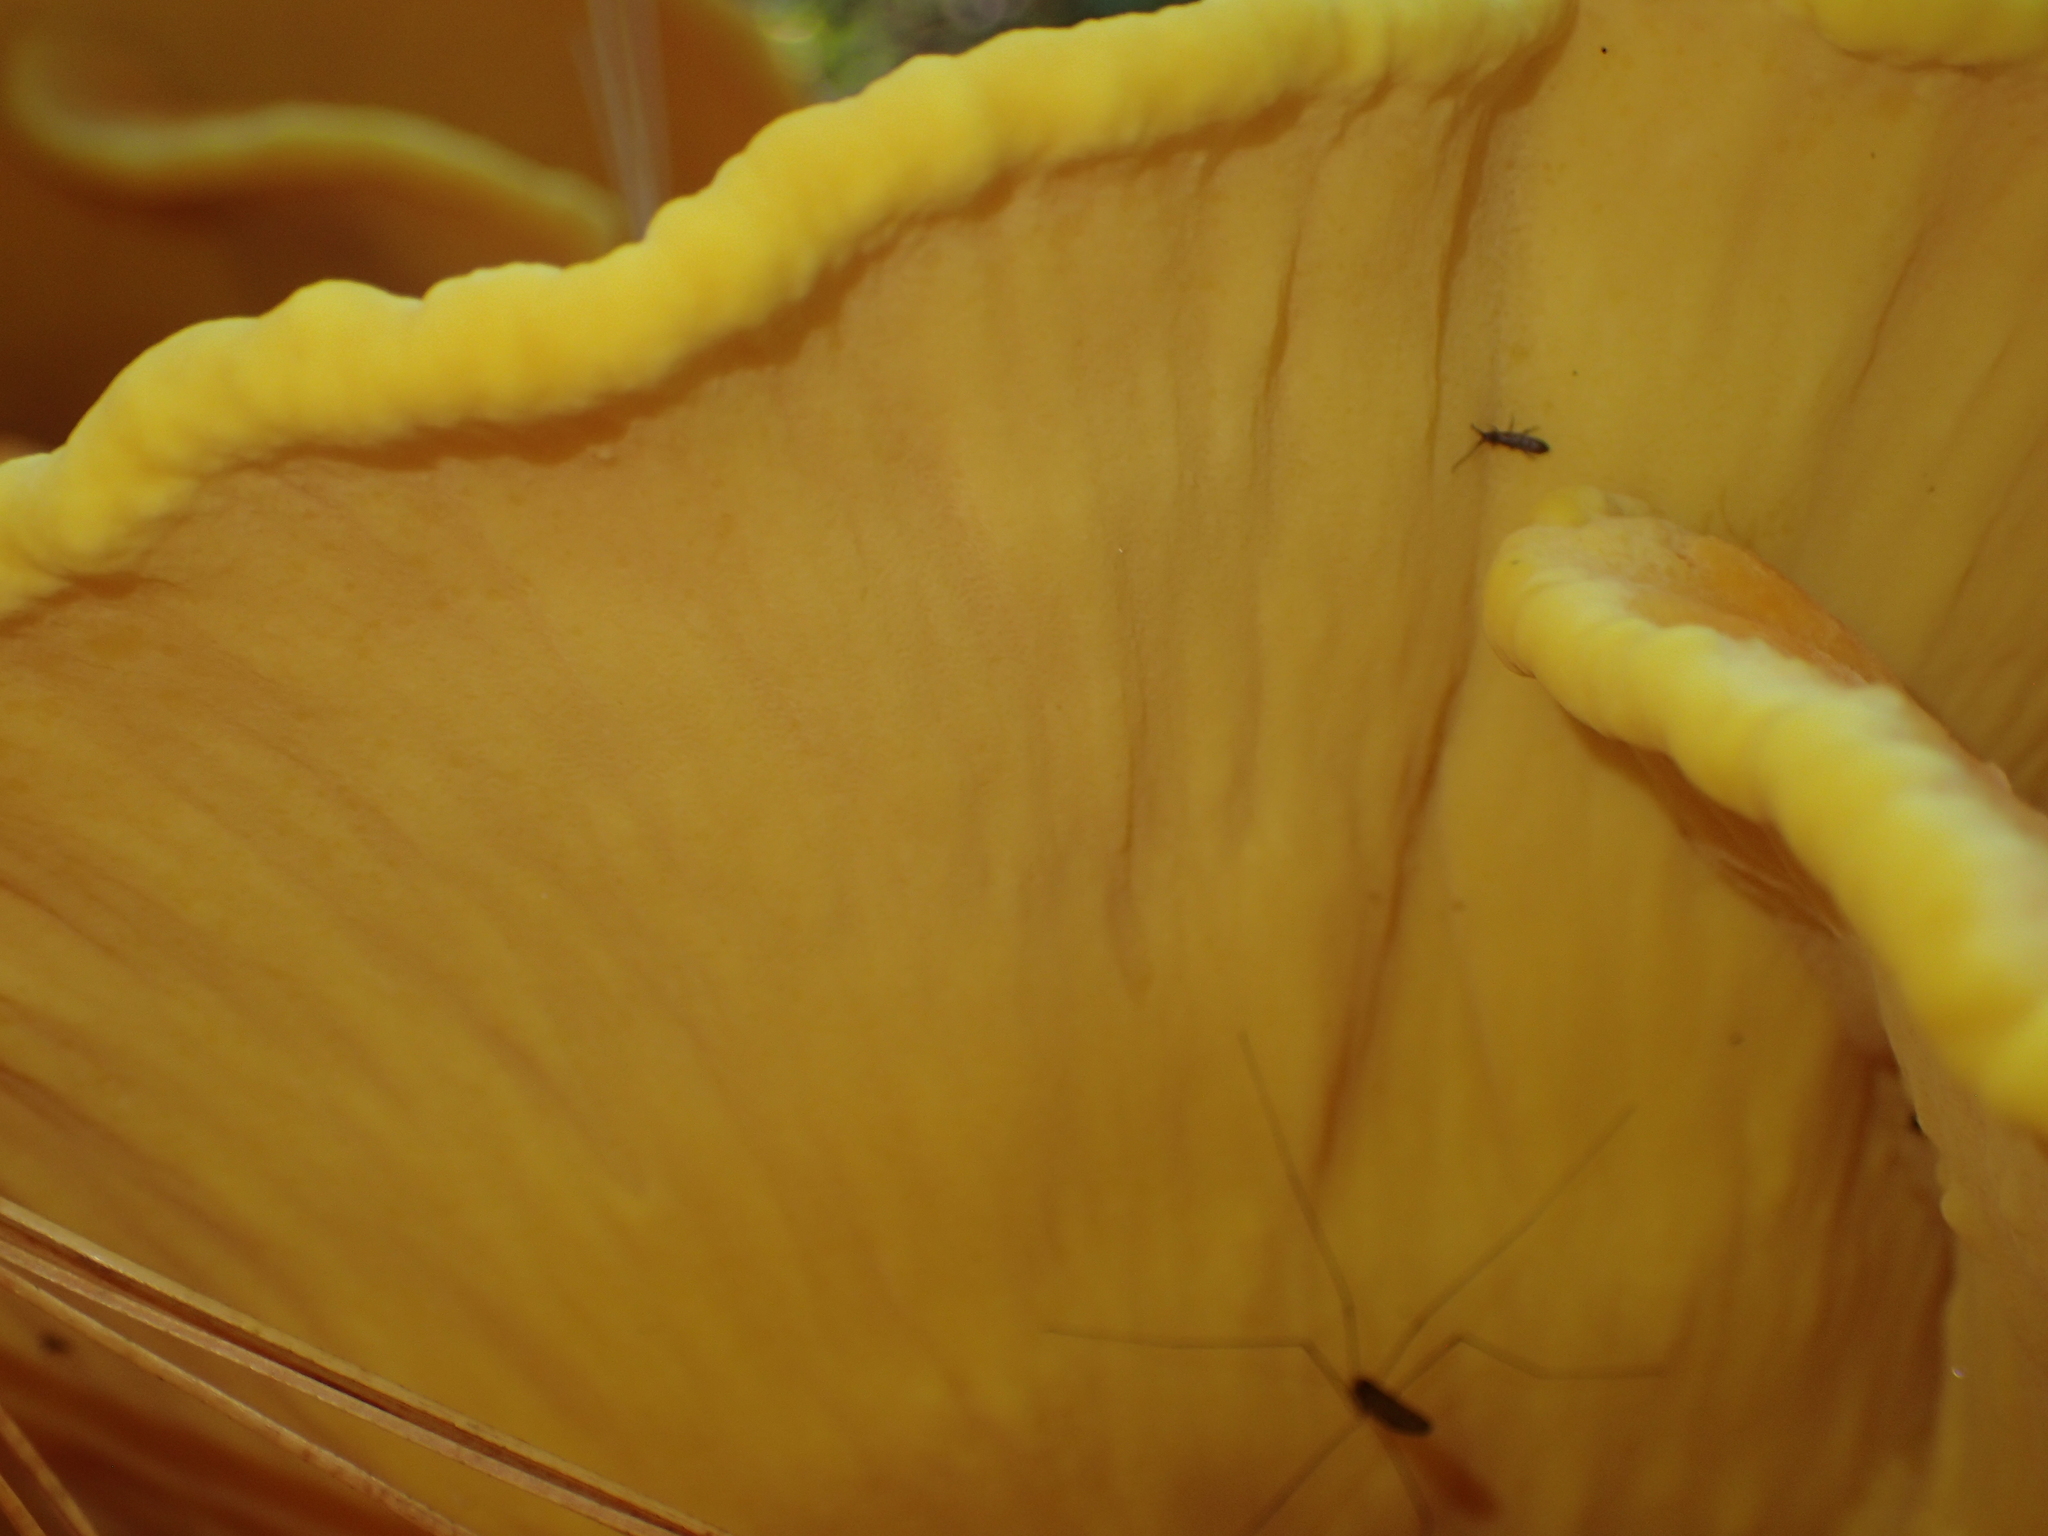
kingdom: Fungi
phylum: Basidiomycota
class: Agaricomycetes
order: Polyporales
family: Laetiporaceae
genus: Laetiporus
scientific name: Laetiporus sulphureus
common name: Chicken of the woods
